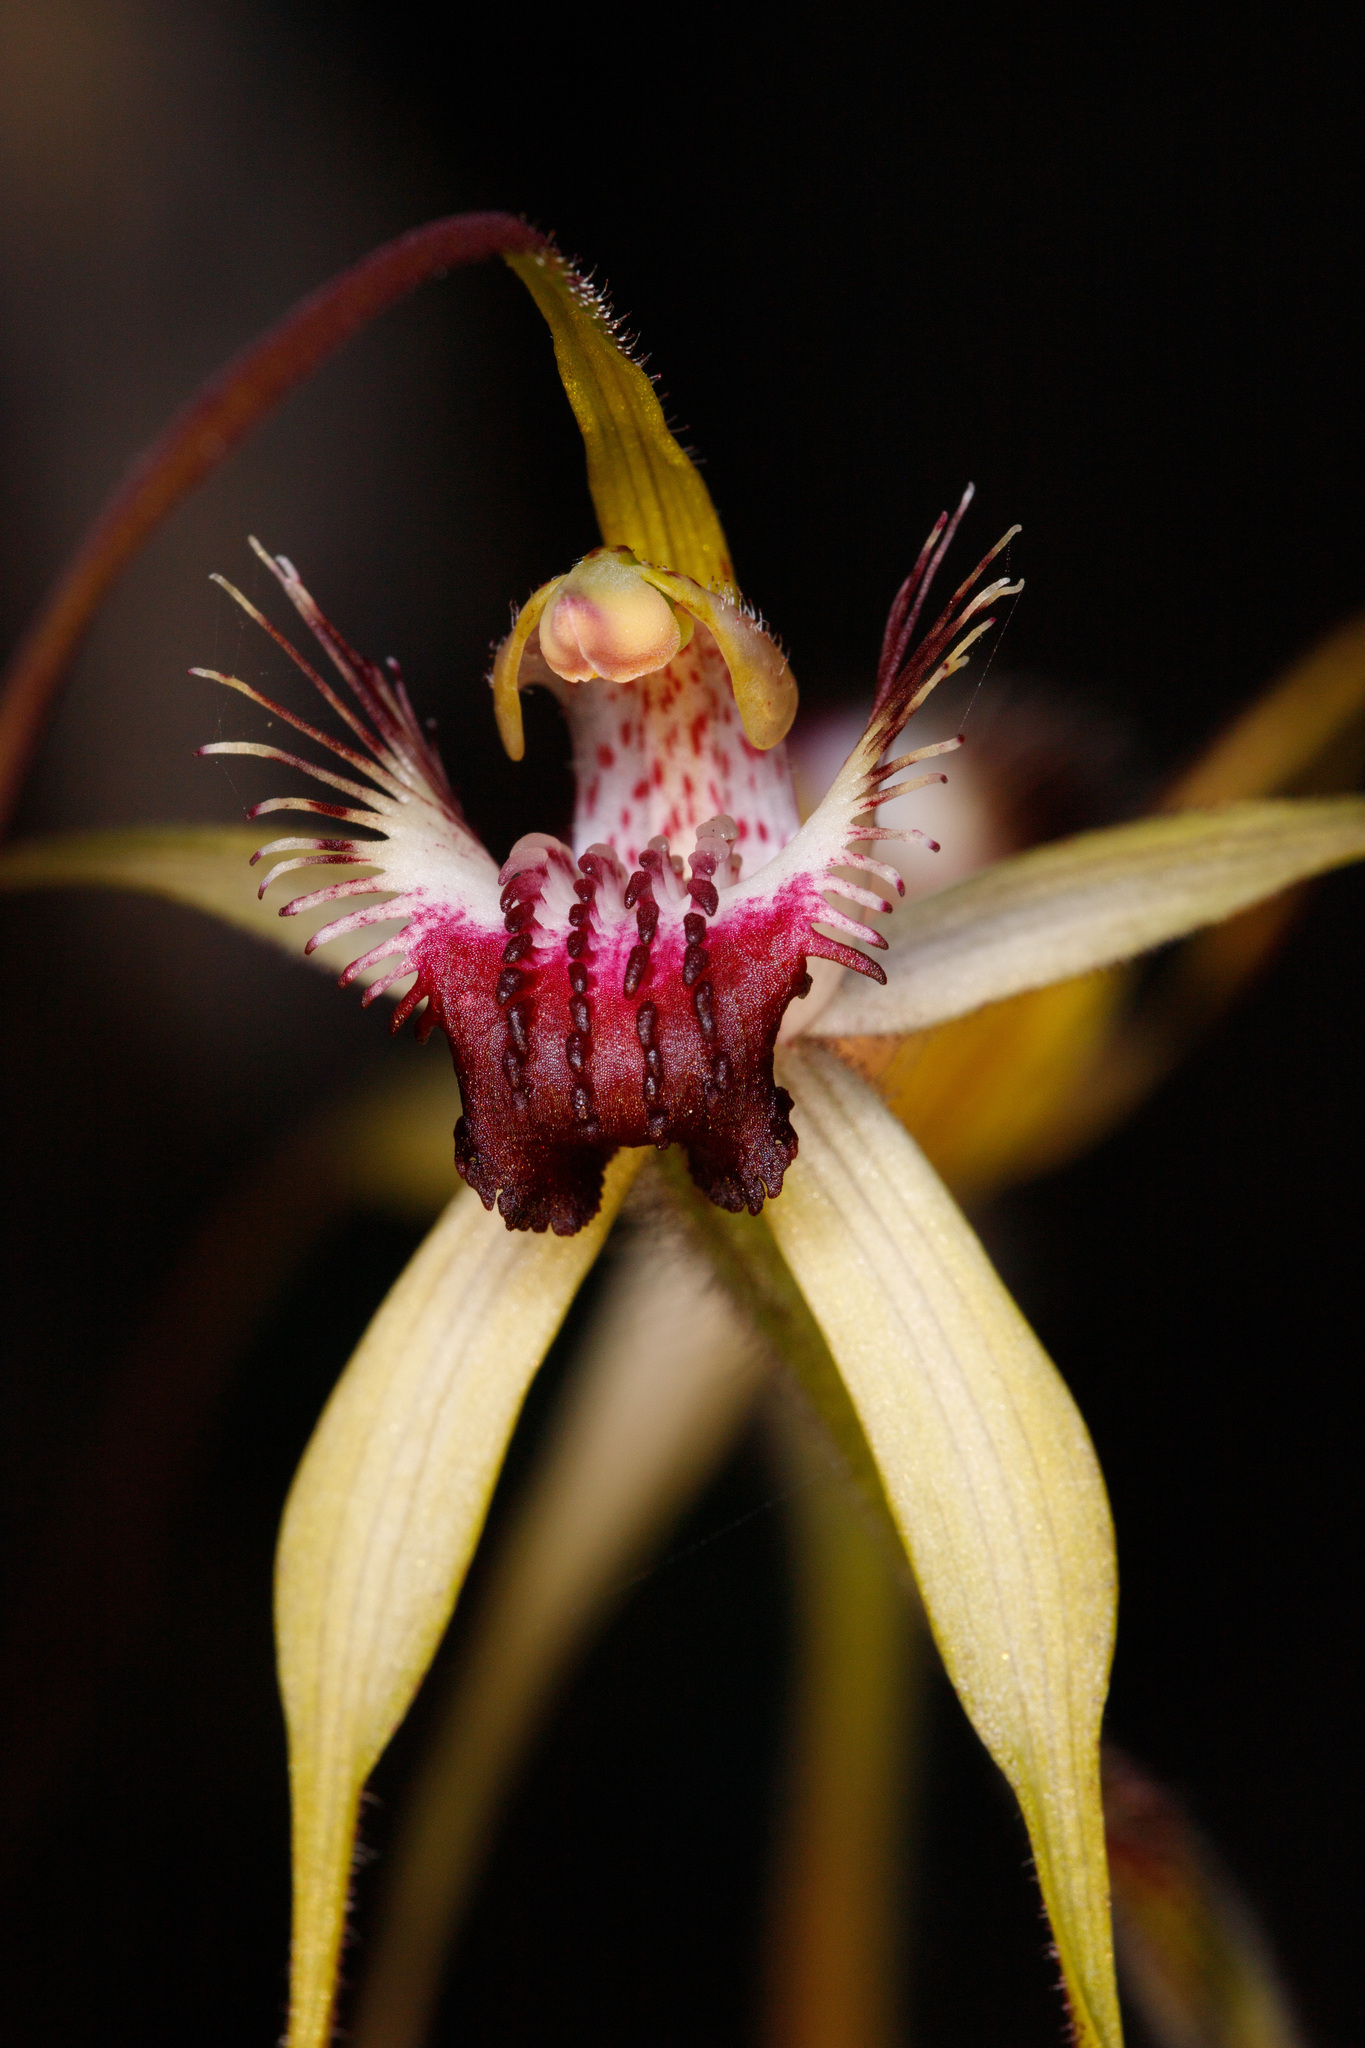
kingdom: Plantae
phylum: Tracheophyta
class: Liliopsida
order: Asparagales
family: Orchidaceae
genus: Caladenia
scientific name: Caladenia heberleana
